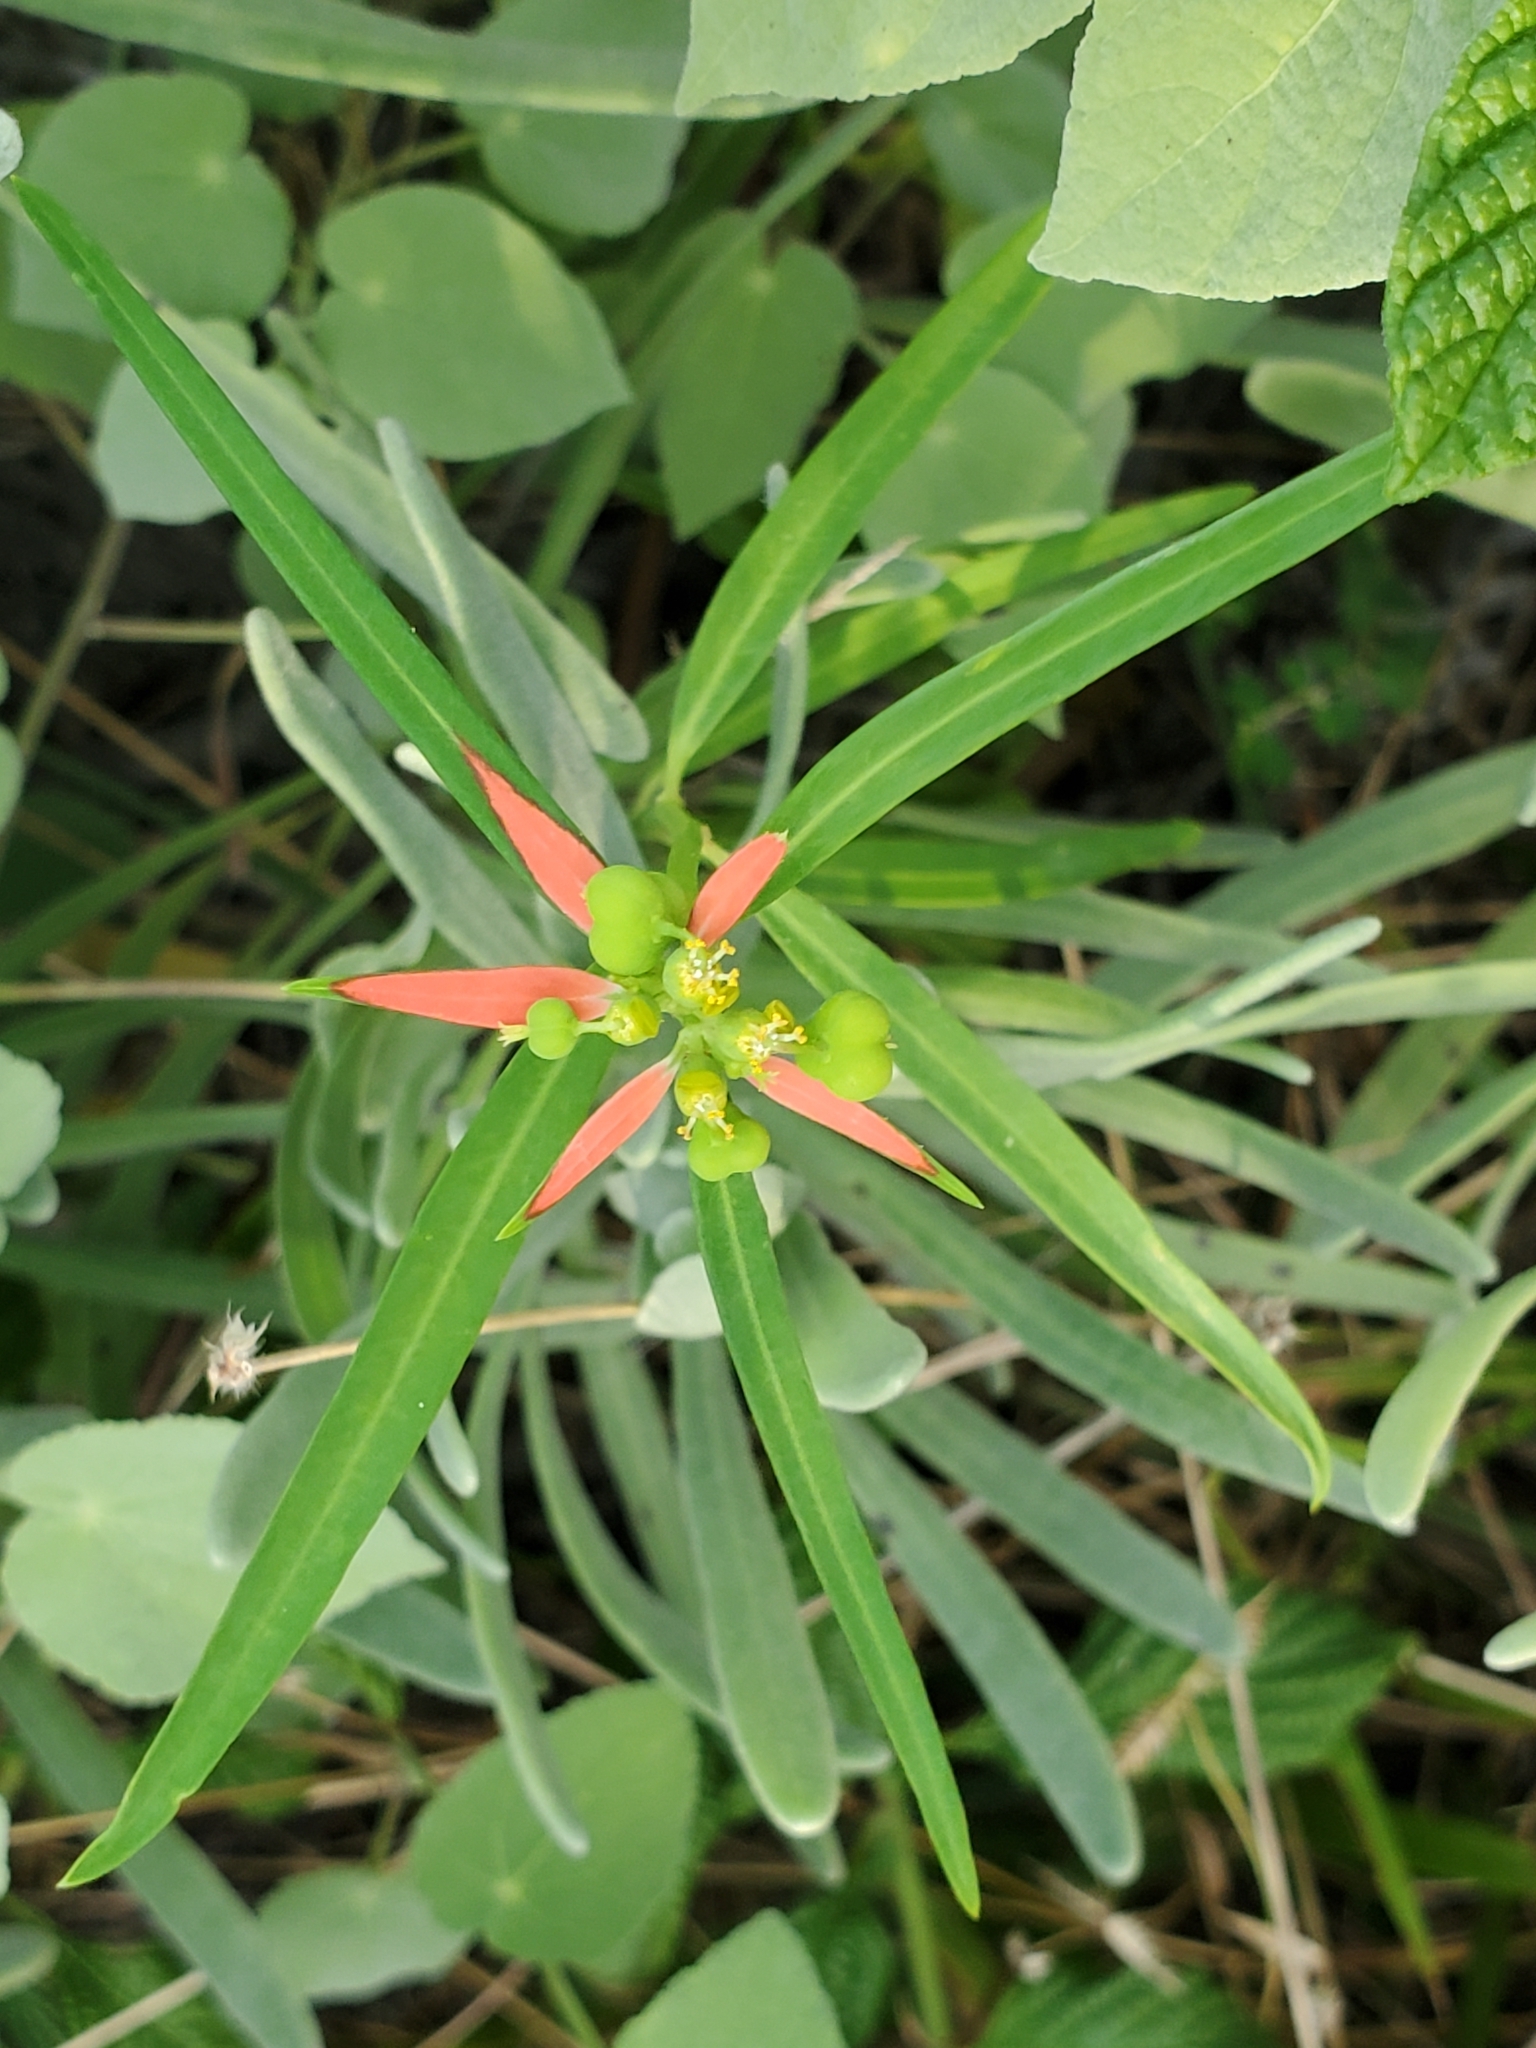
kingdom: Plantae
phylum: Tracheophyta
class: Magnoliopsida
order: Malpighiales
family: Euphorbiaceae
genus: Euphorbia
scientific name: Euphorbia heterophylla
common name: Mexican fireplant
